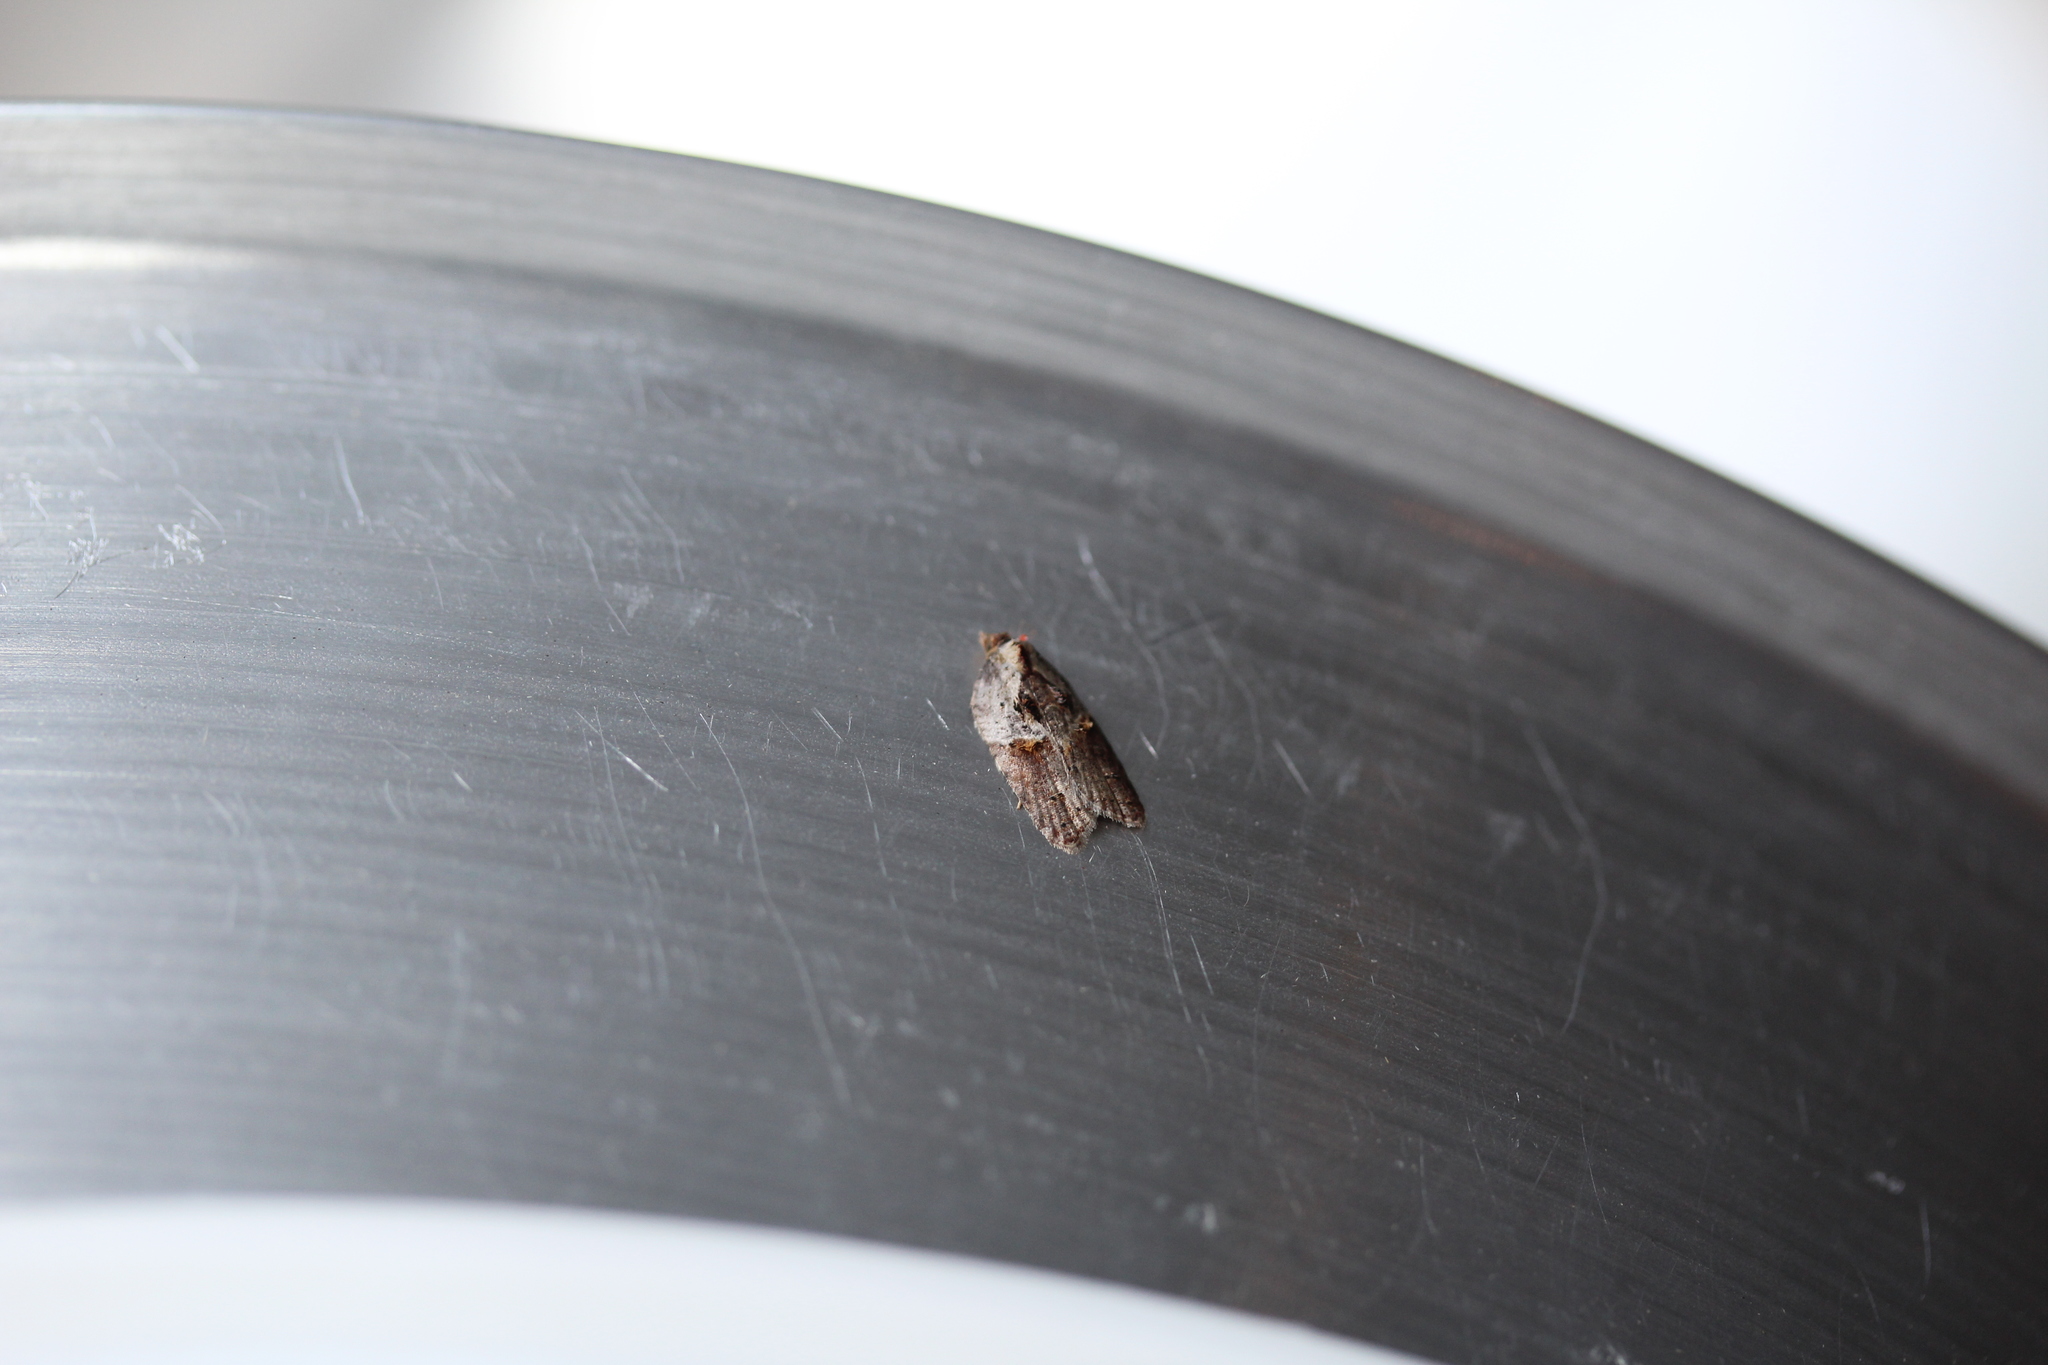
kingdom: Animalia
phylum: Arthropoda
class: Insecta
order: Lepidoptera
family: Tortricidae
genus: Acleris
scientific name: Acleris robinsoniana
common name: Robinson's acleris moth
